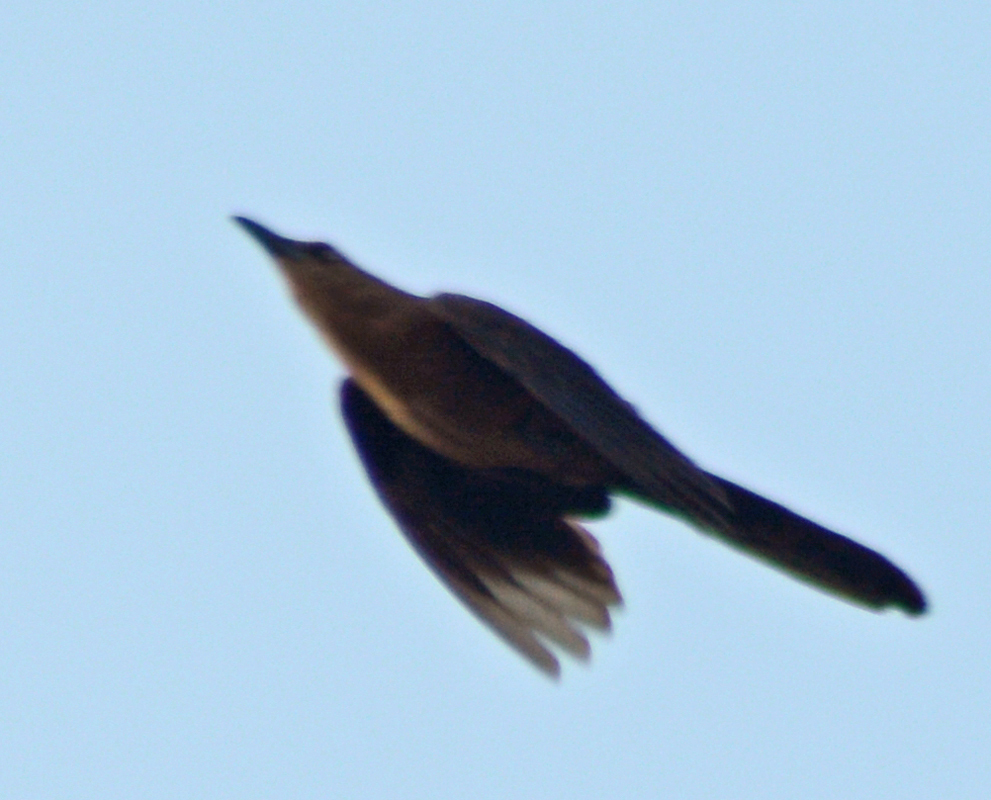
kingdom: Animalia
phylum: Chordata
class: Aves
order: Passeriformes
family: Icteridae
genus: Quiscalus
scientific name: Quiscalus mexicanus
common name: Great-tailed grackle
